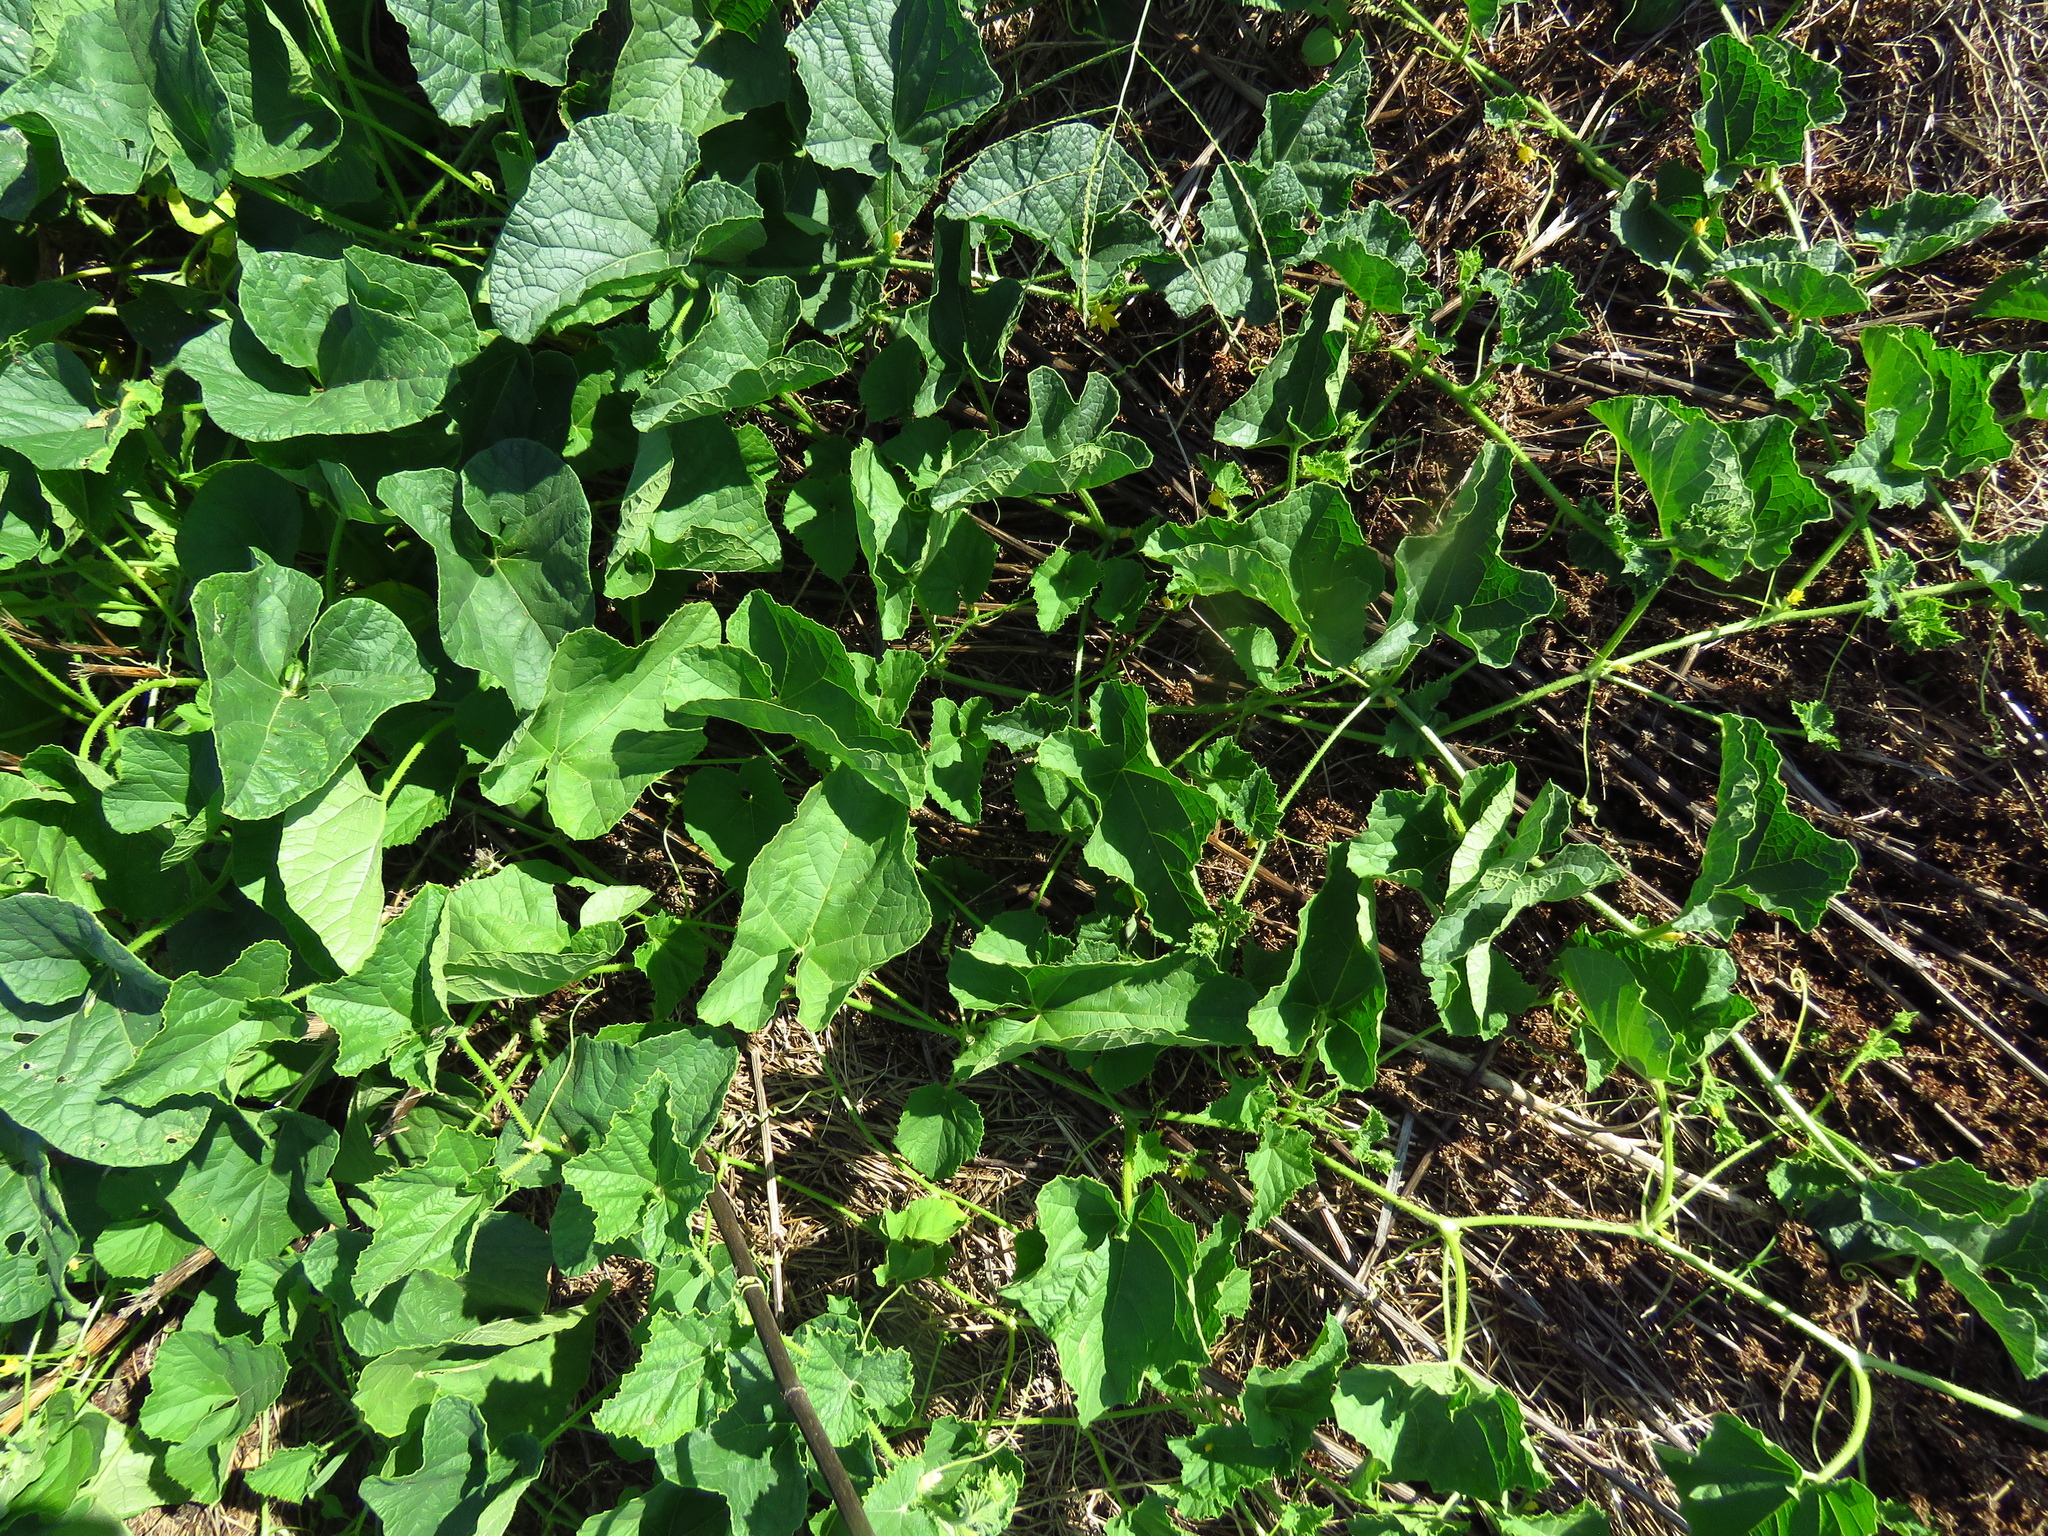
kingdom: Plantae
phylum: Tracheophyta
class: Magnoliopsida
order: Cucurbitales
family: Cucurbitaceae
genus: Cucumis
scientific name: Cucumis melo
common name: Melon
